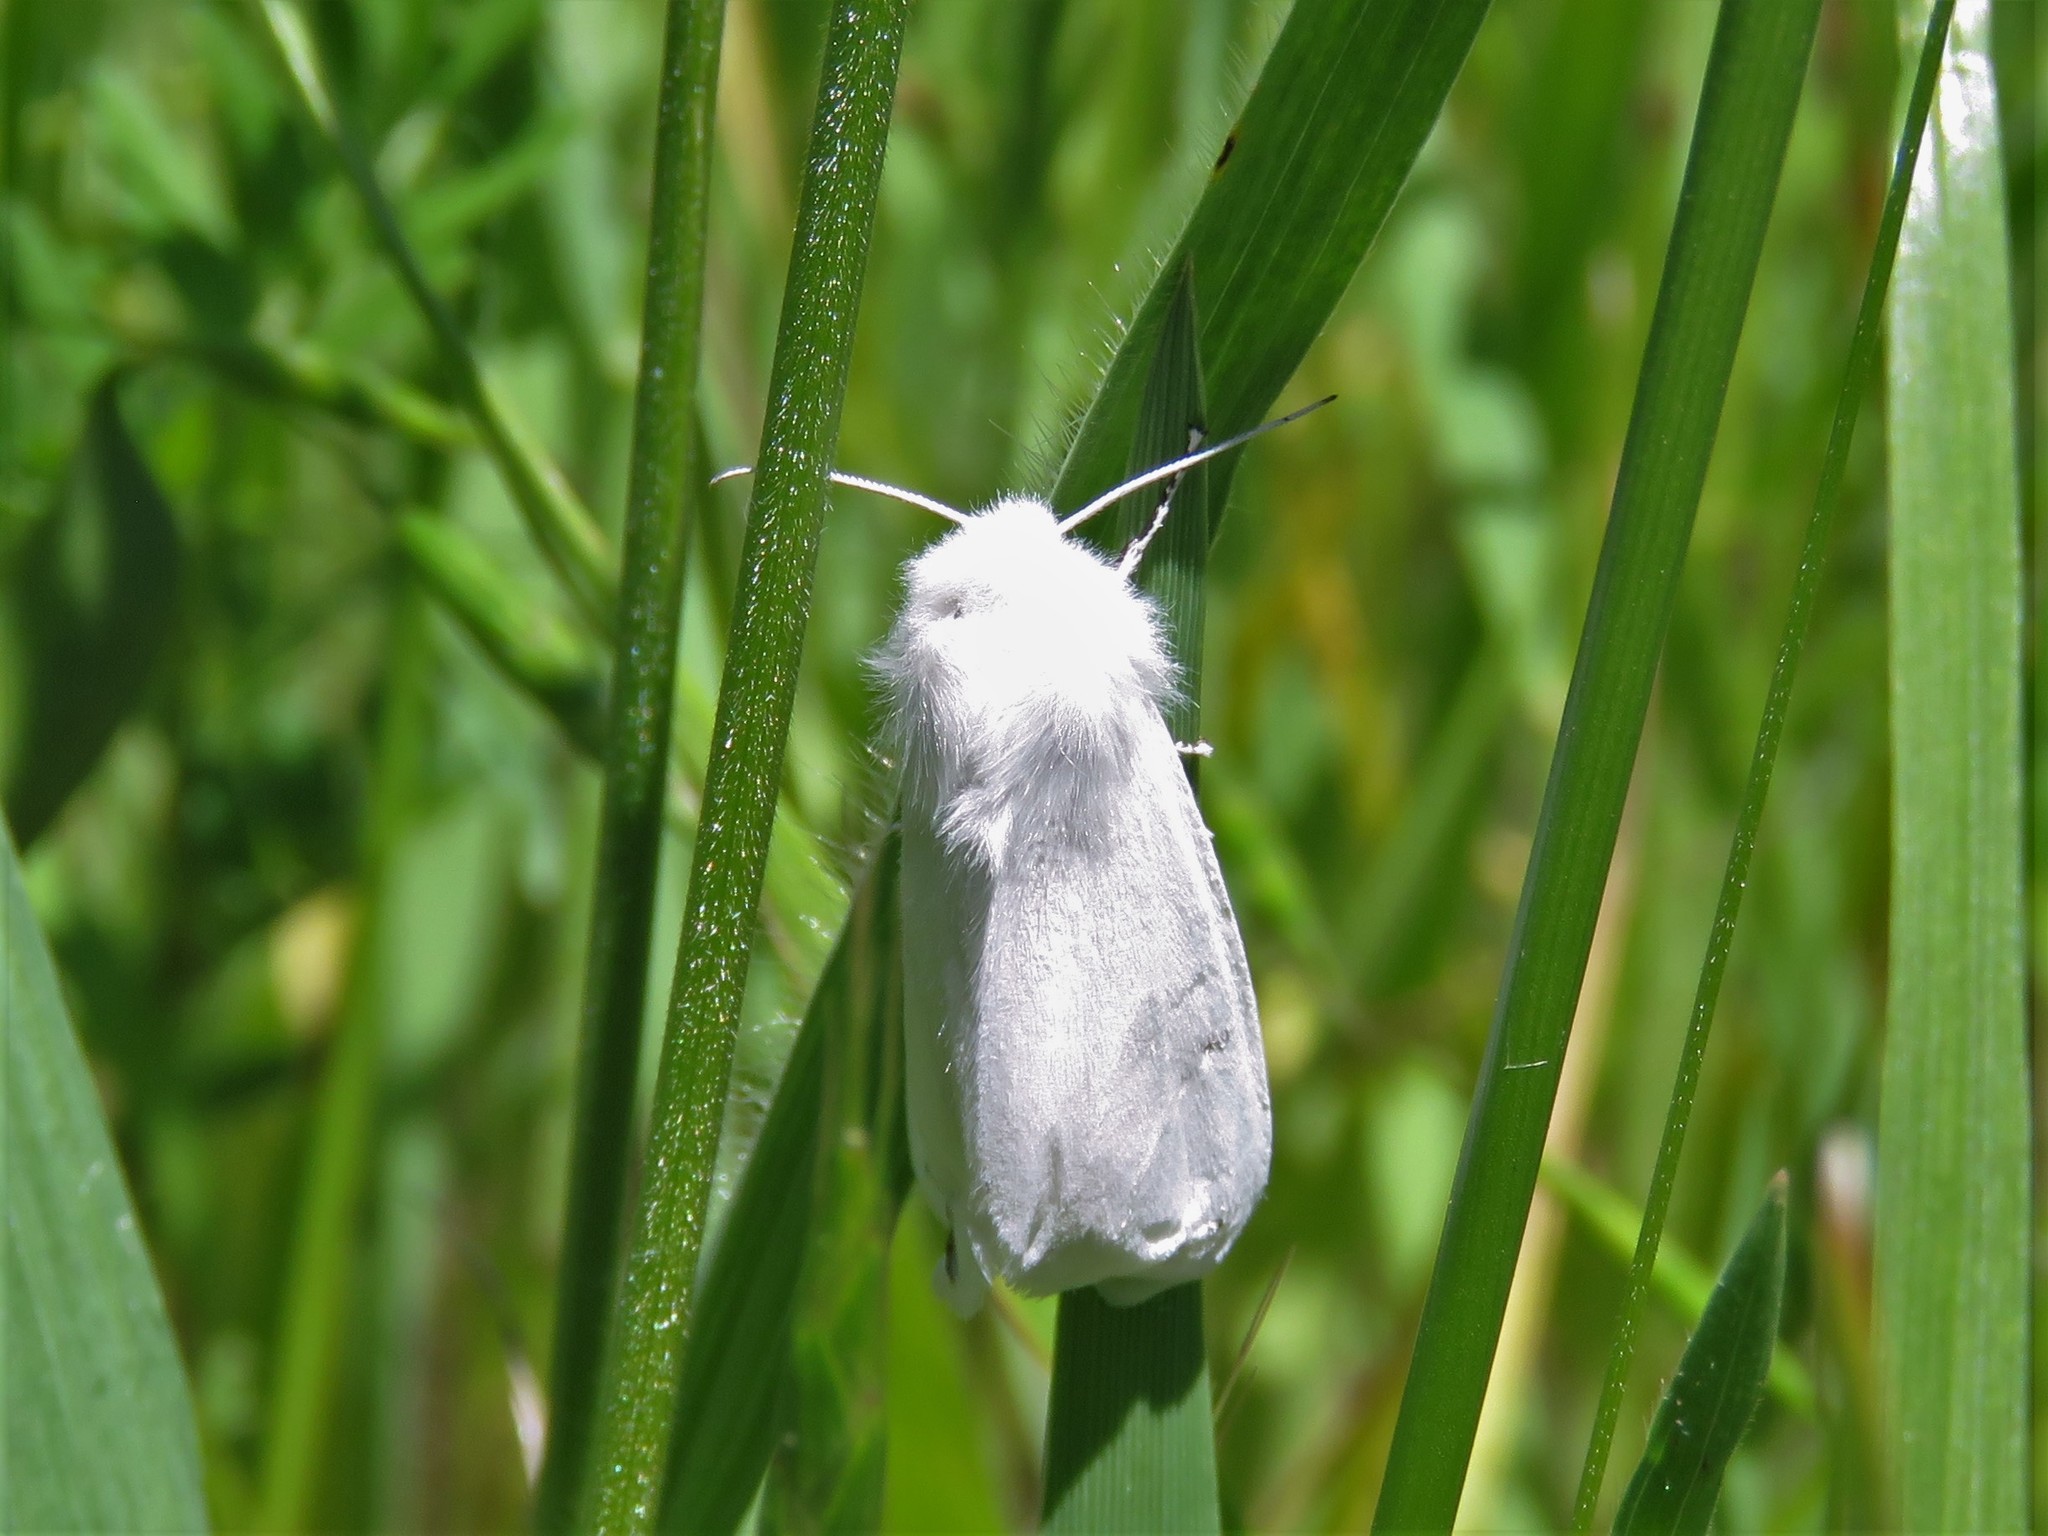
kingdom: Animalia
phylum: Arthropoda
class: Insecta
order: Lepidoptera
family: Erebidae
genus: Hyphantria
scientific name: Hyphantria cunea
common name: American white moth
